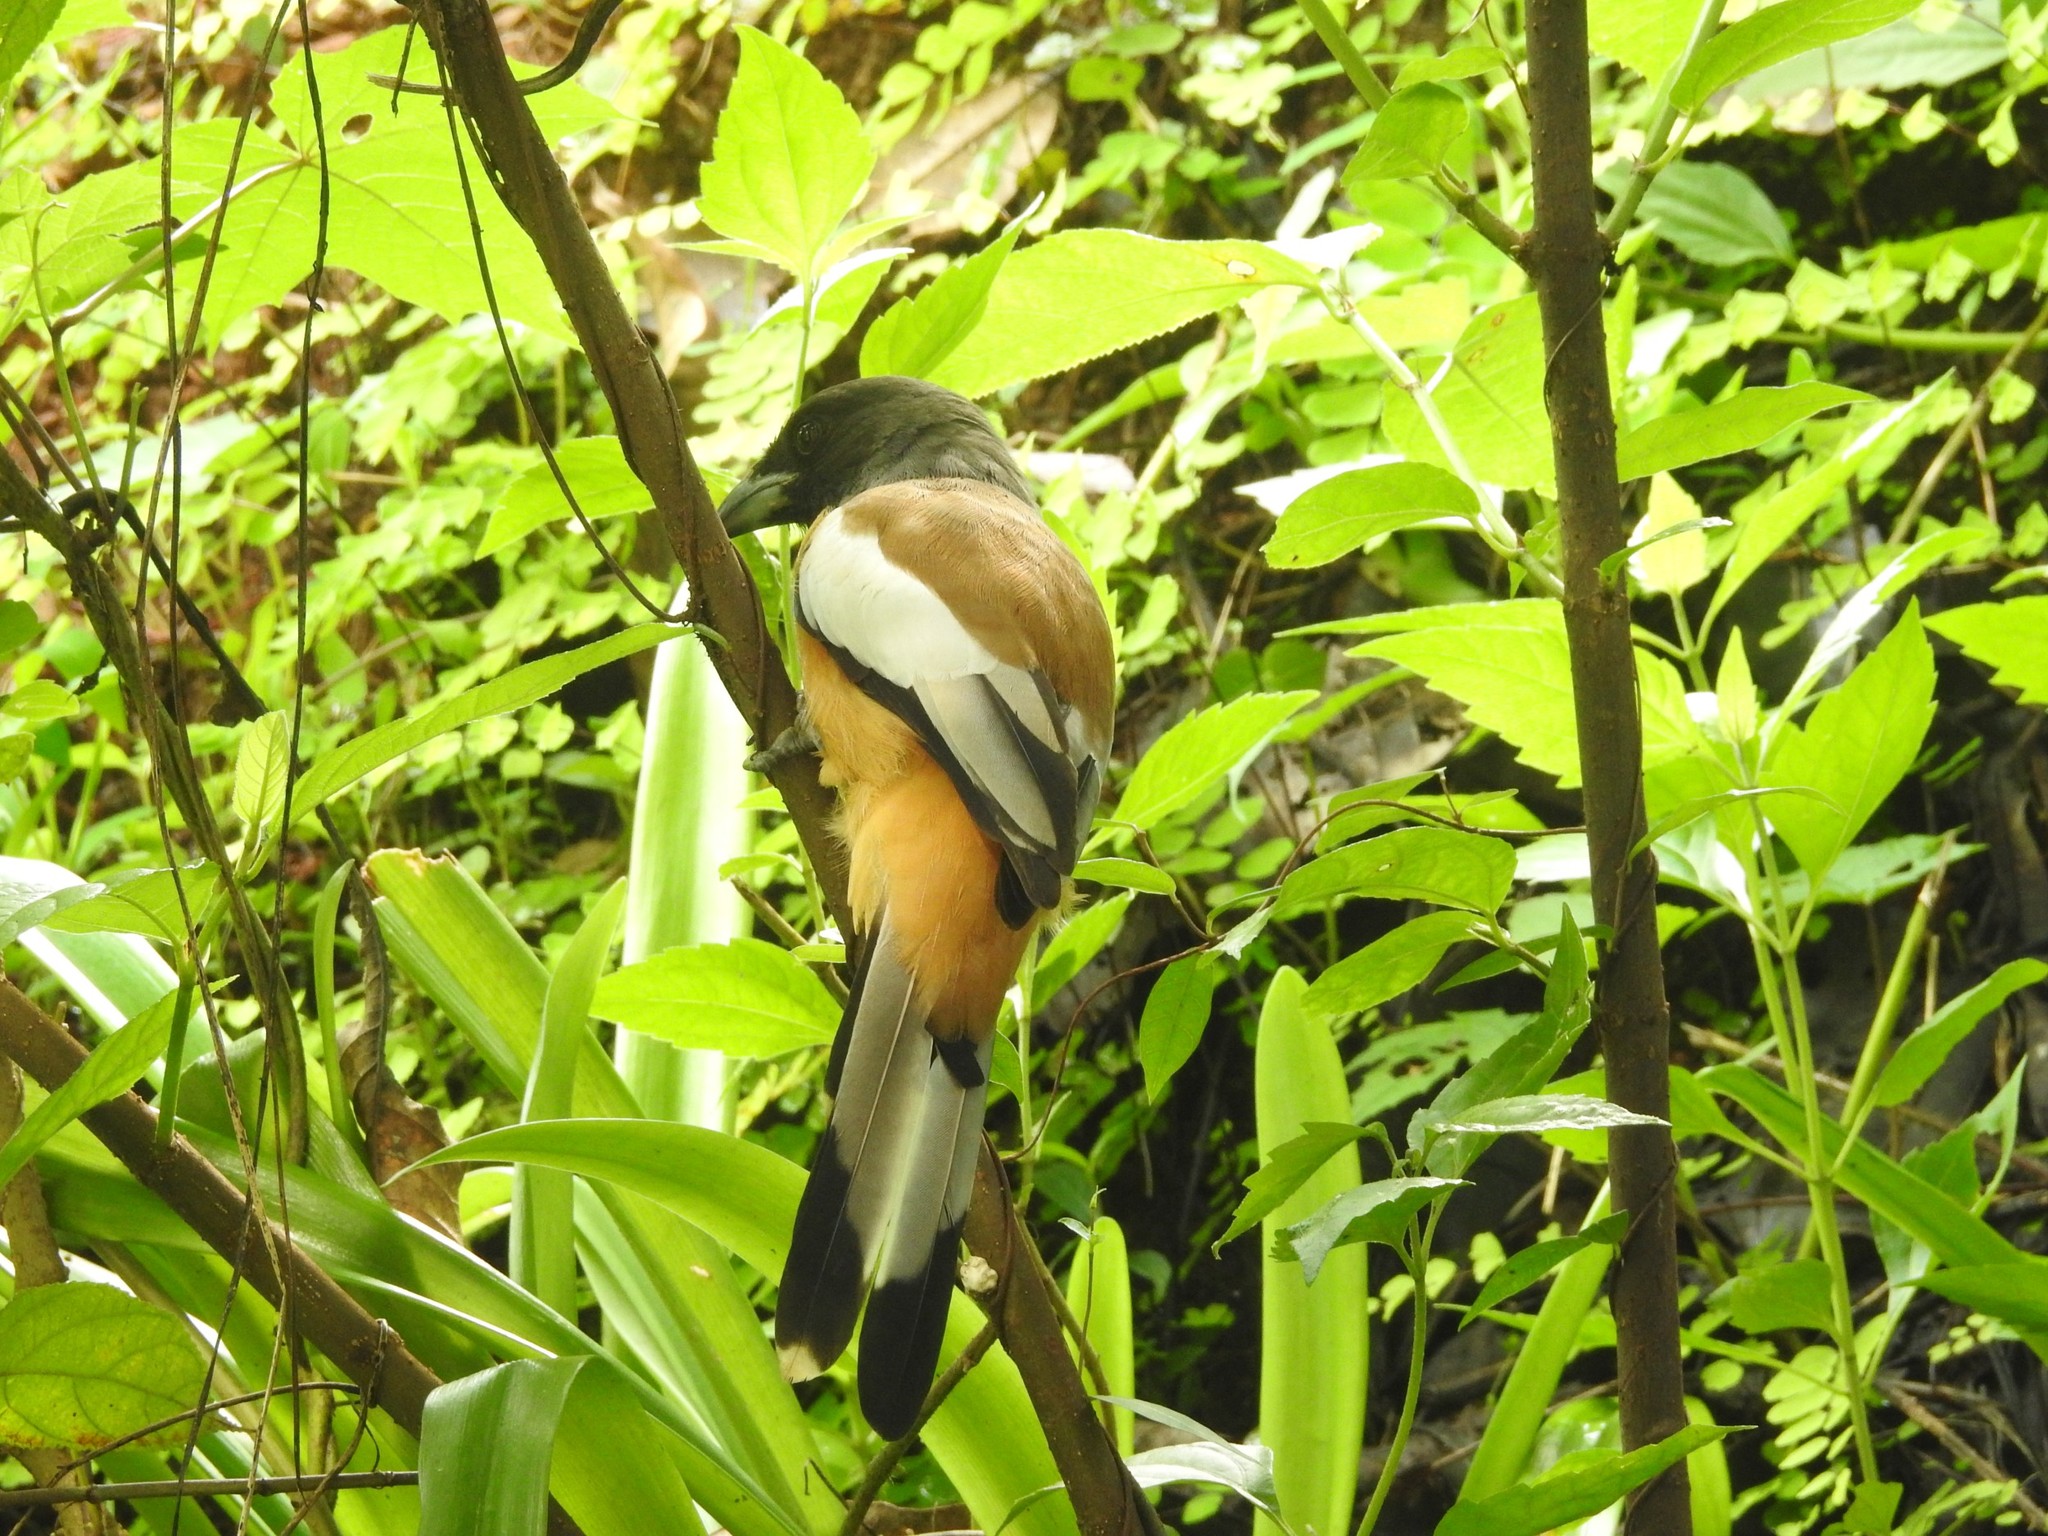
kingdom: Animalia
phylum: Chordata
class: Aves
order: Passeriformes
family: Corvidae
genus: Dendrocitta
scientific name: Dendrocitta vagabunda
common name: Rufous treepie
